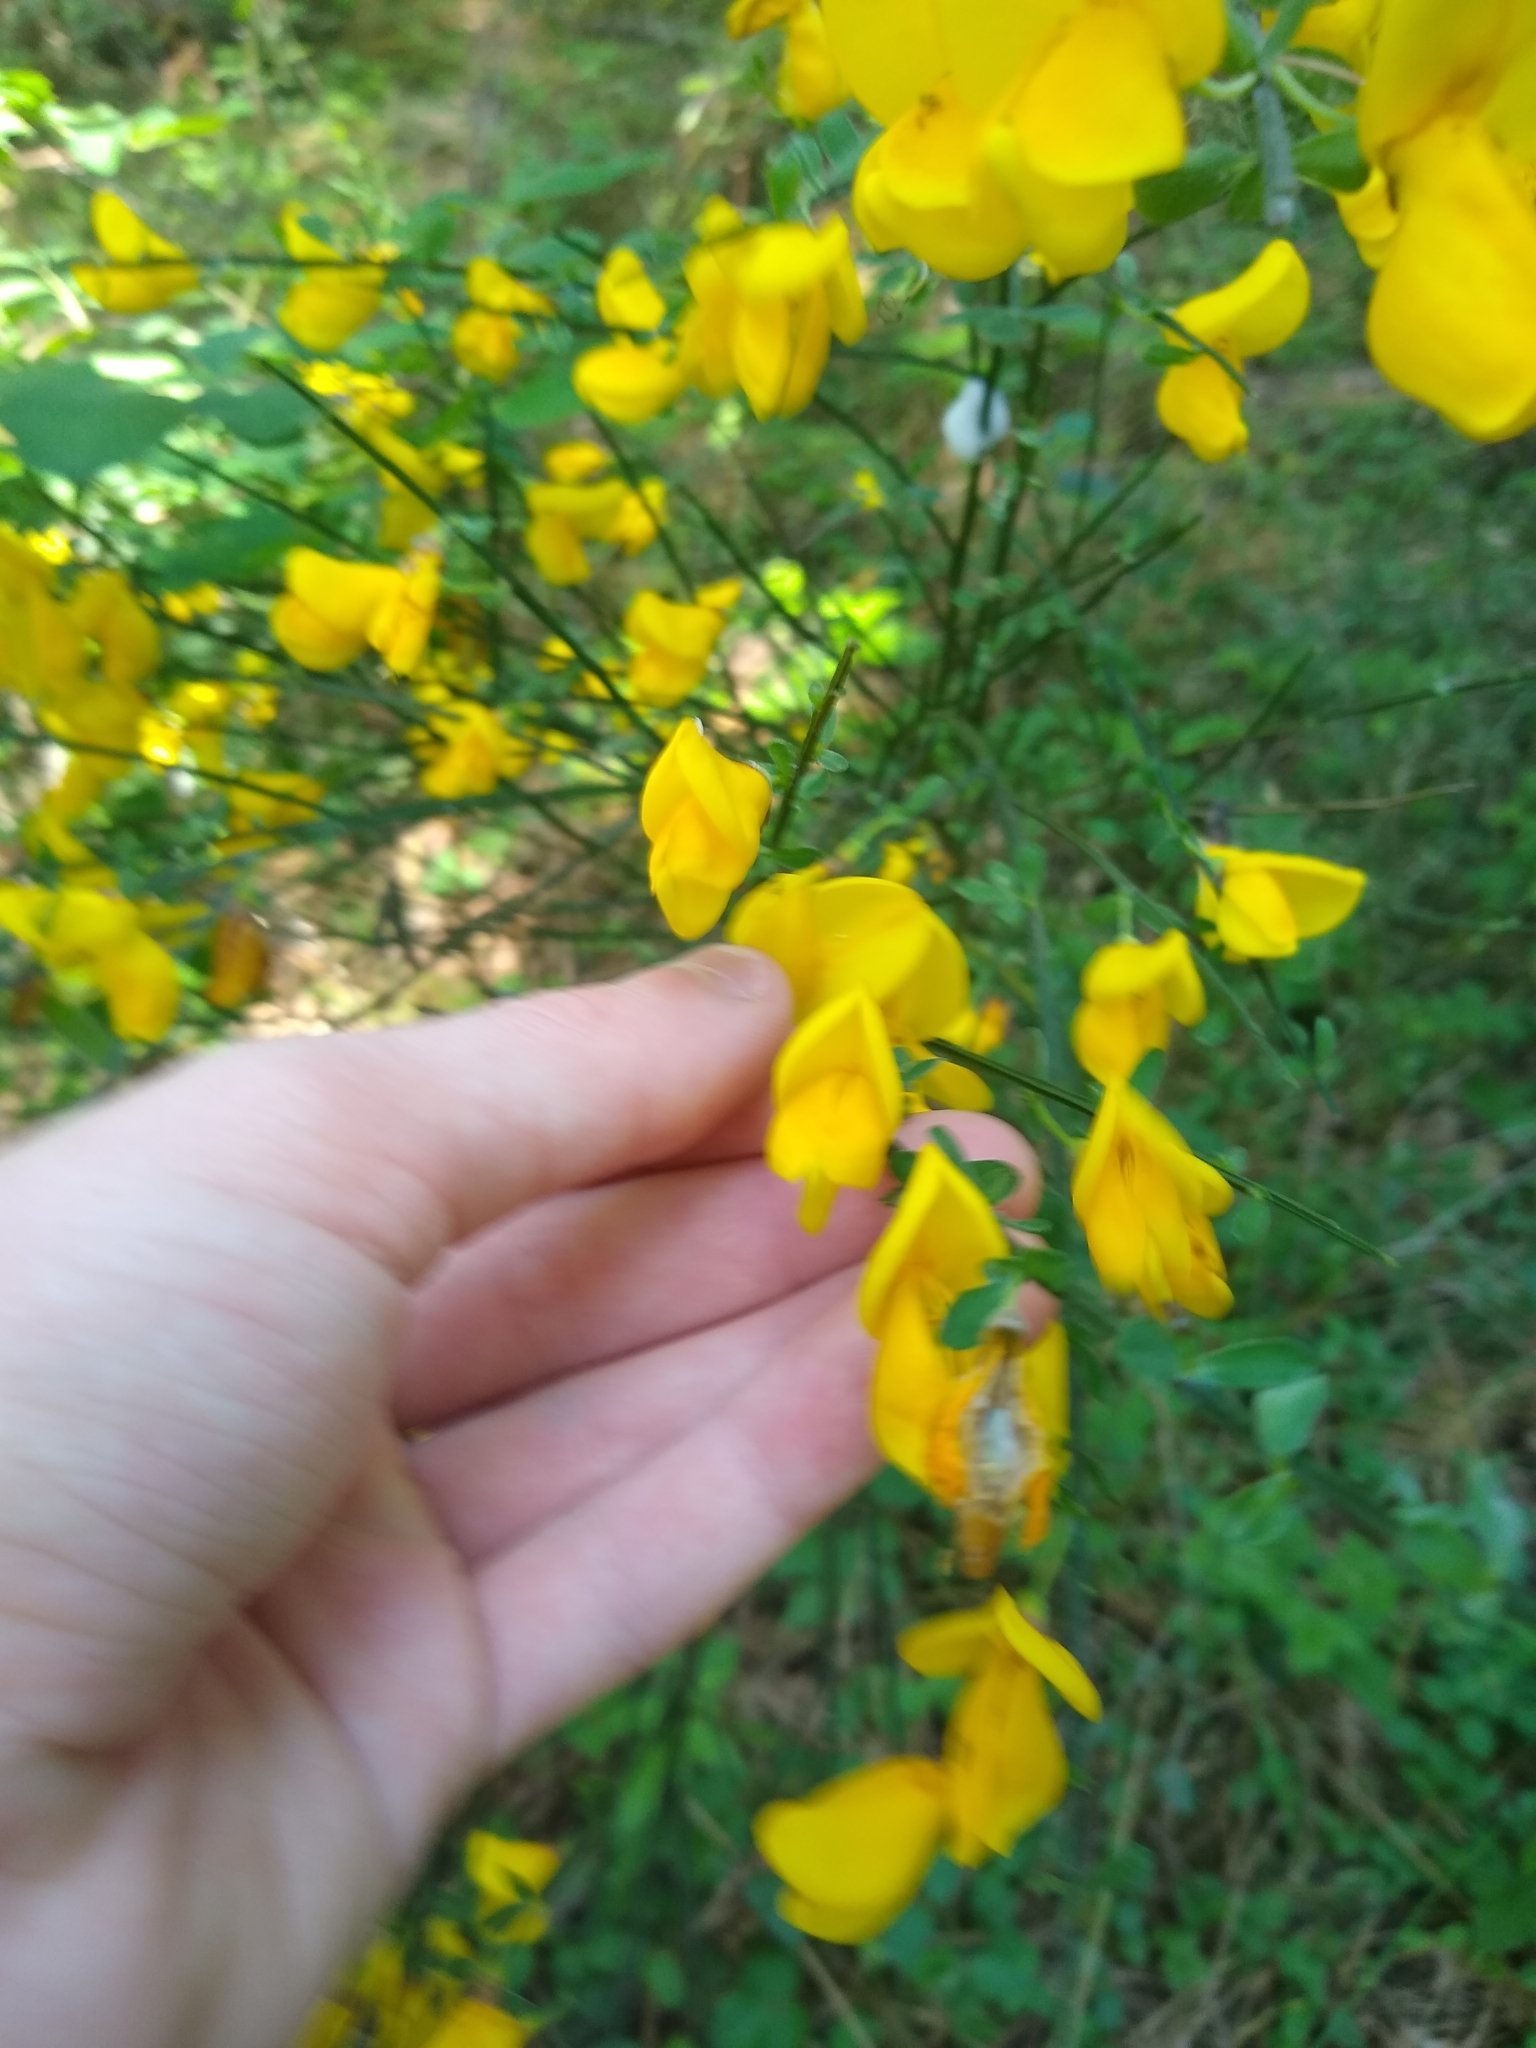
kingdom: Plantae
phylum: Tracheophyta
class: Magnoliopsida
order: Fabales
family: Fabaceae
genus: Cytisus
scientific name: Cytisus scoparius
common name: Scotch broom
